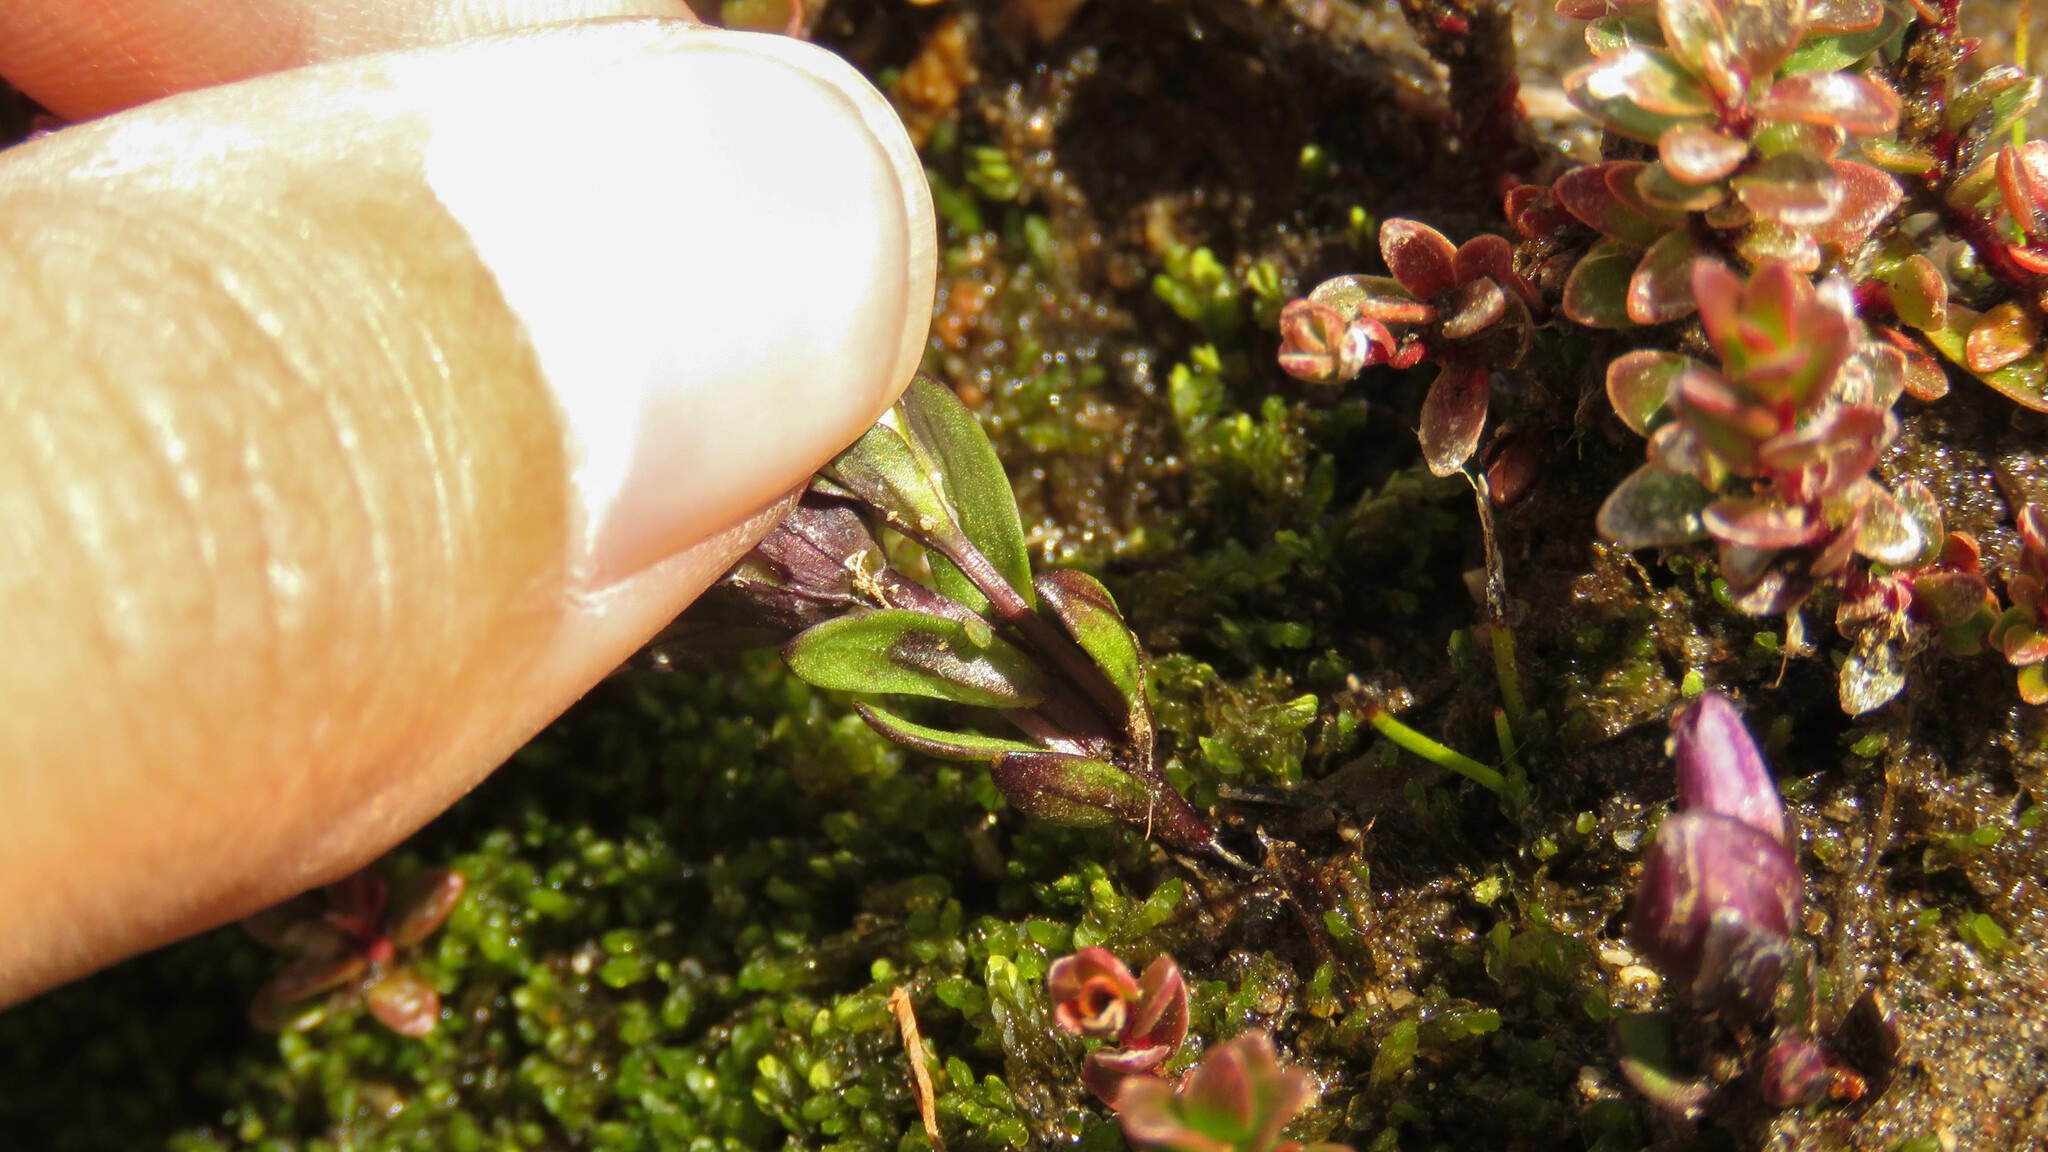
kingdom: Plantae
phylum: Tracheophyta
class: Magnoliopsida
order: Gentianales
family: Gentianaceae
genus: Gentianella
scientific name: Gentianella magellanica
